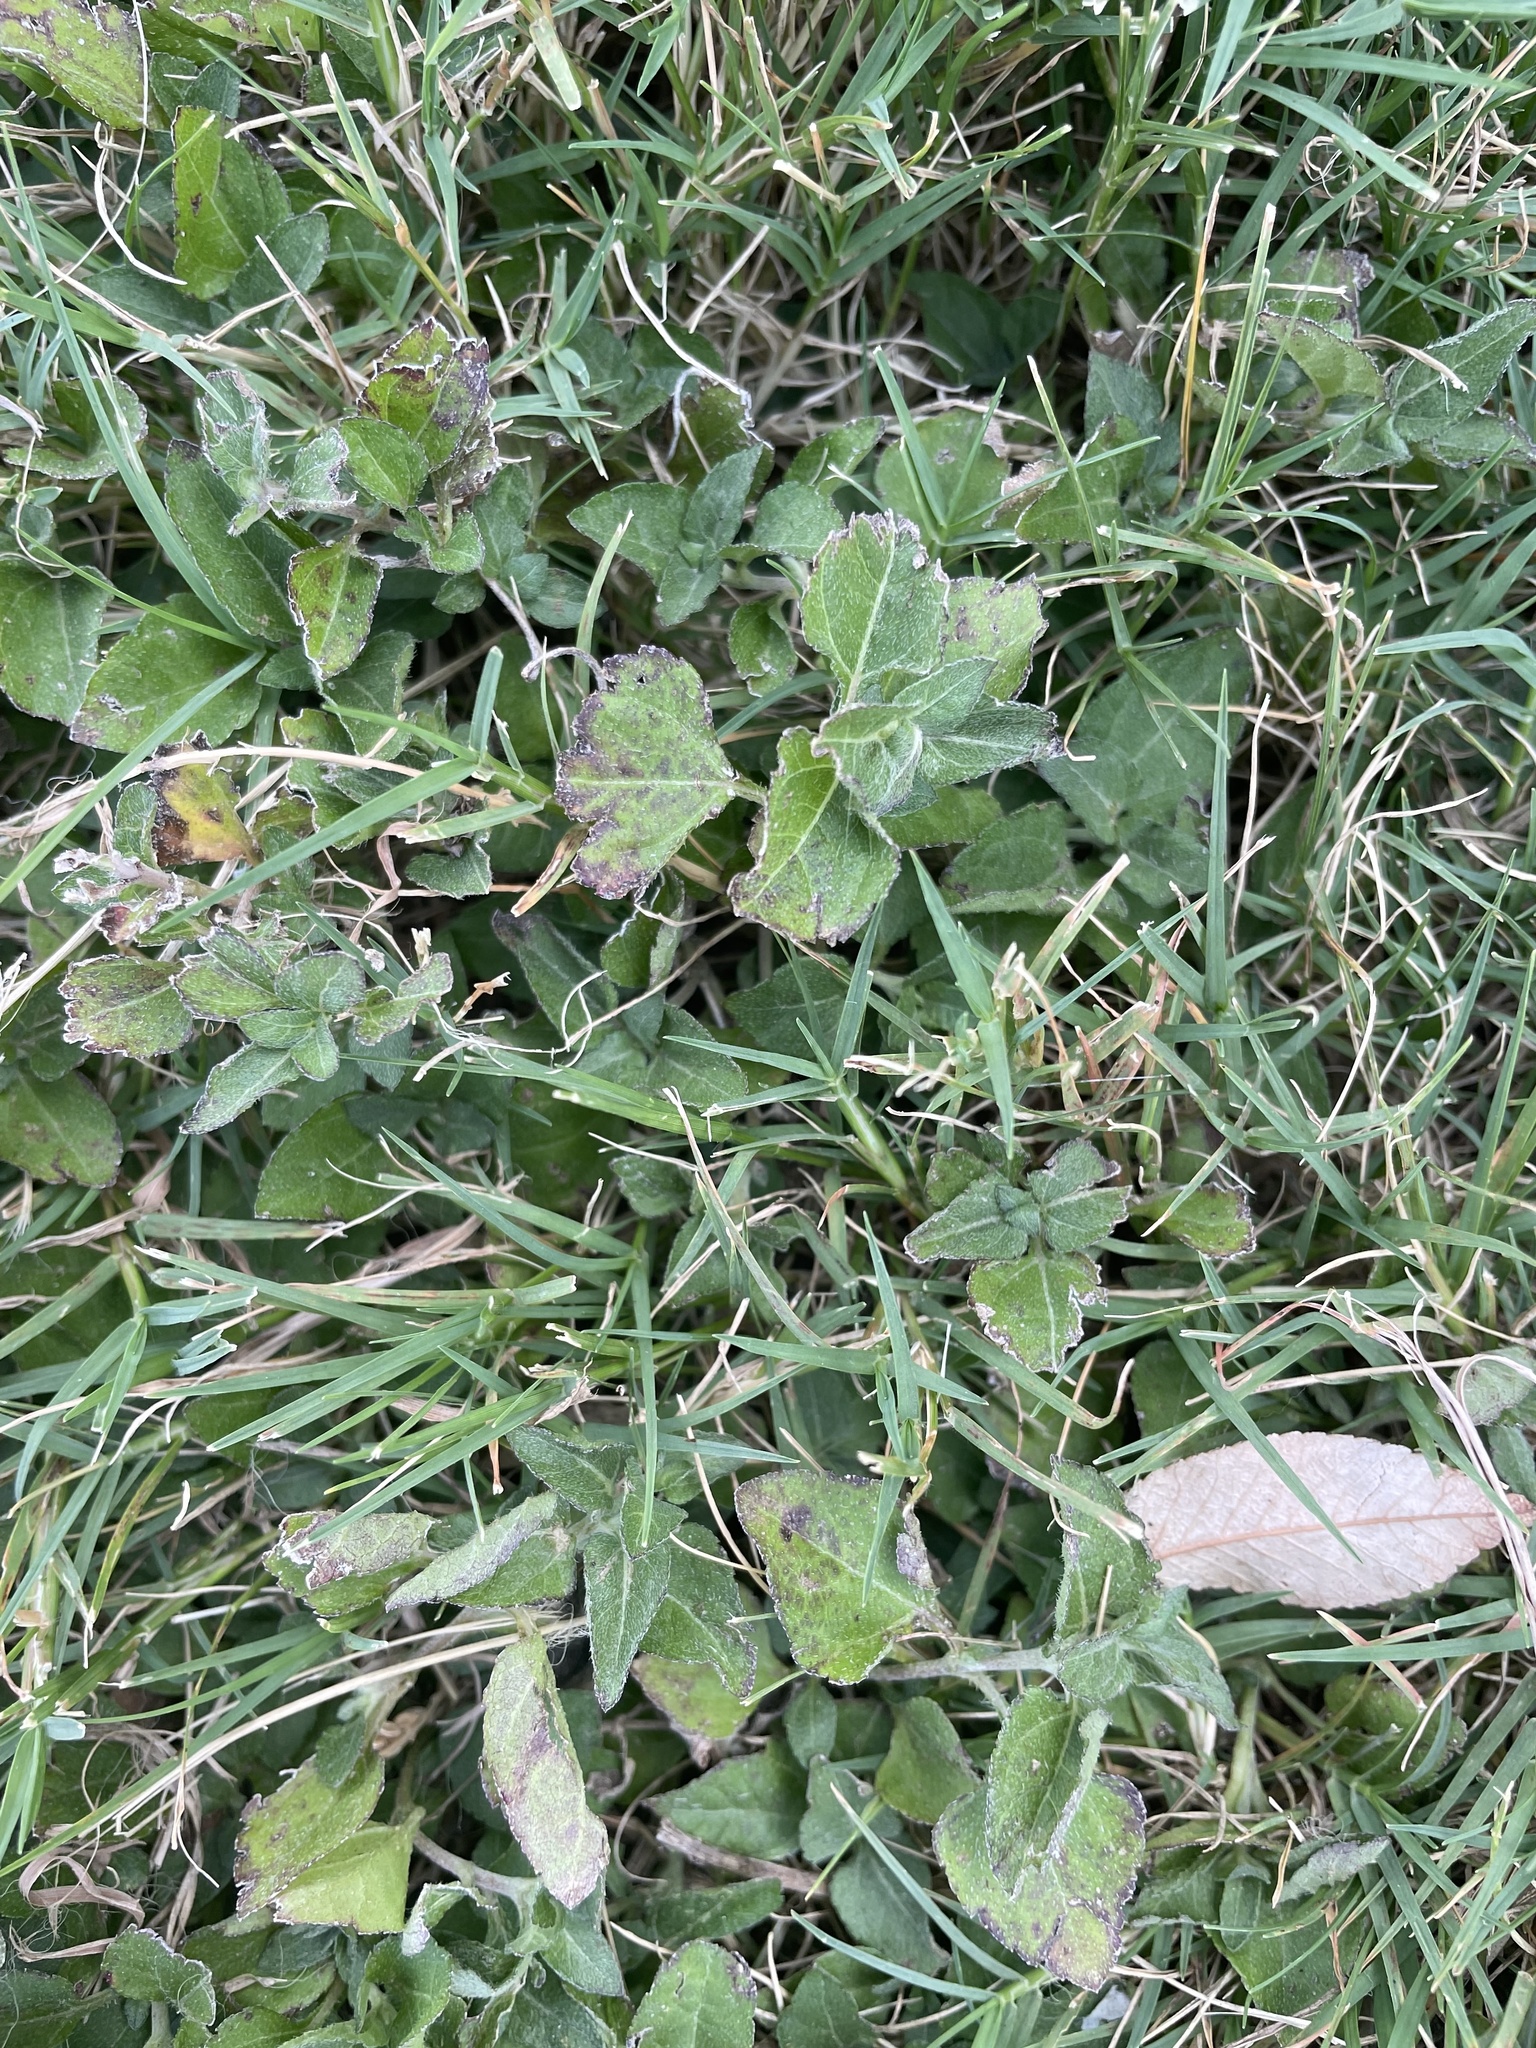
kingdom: Plantae
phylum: Tracheophyta
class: Magnoliopsida
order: Asterales
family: Asteraceae
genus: Calyptocarpus
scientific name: Calyptocarpus vialis
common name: Straggler daisy
